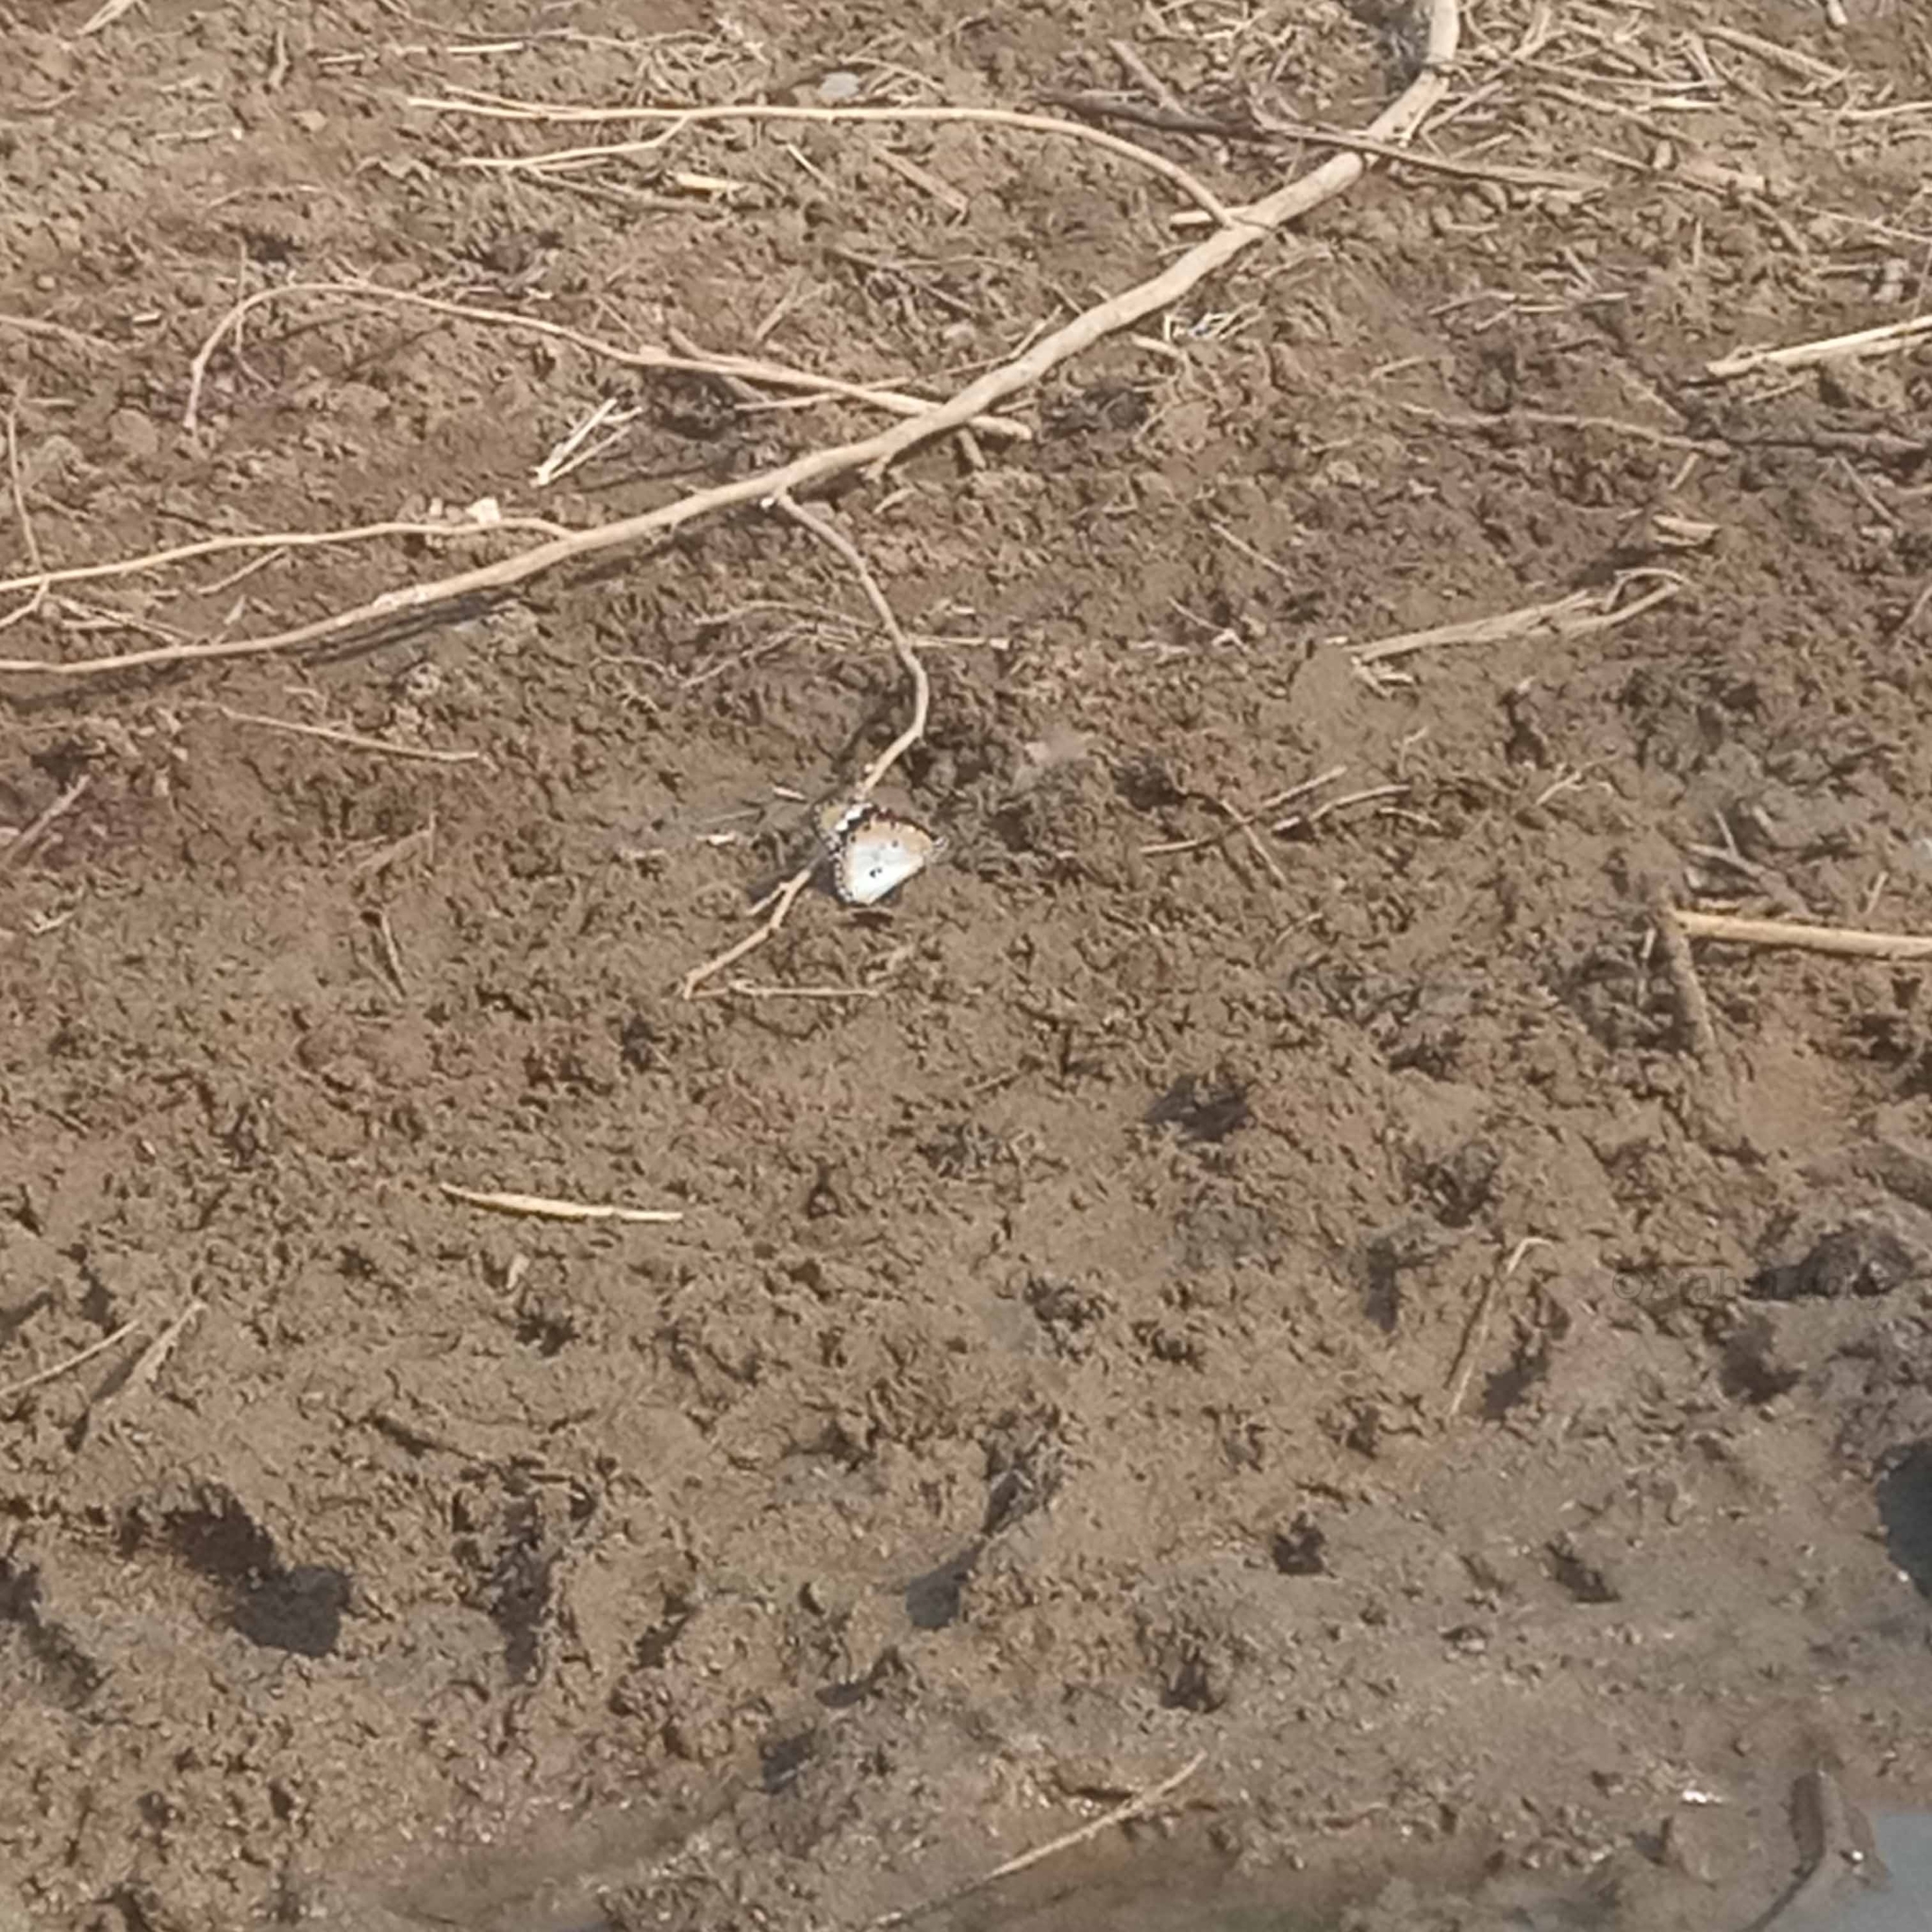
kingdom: Animalia
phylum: Arthropoda
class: Insecta
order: Lepidoptera
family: Nymphalidae
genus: Danaus
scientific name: Danaus chrysippus
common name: Plain tiger
